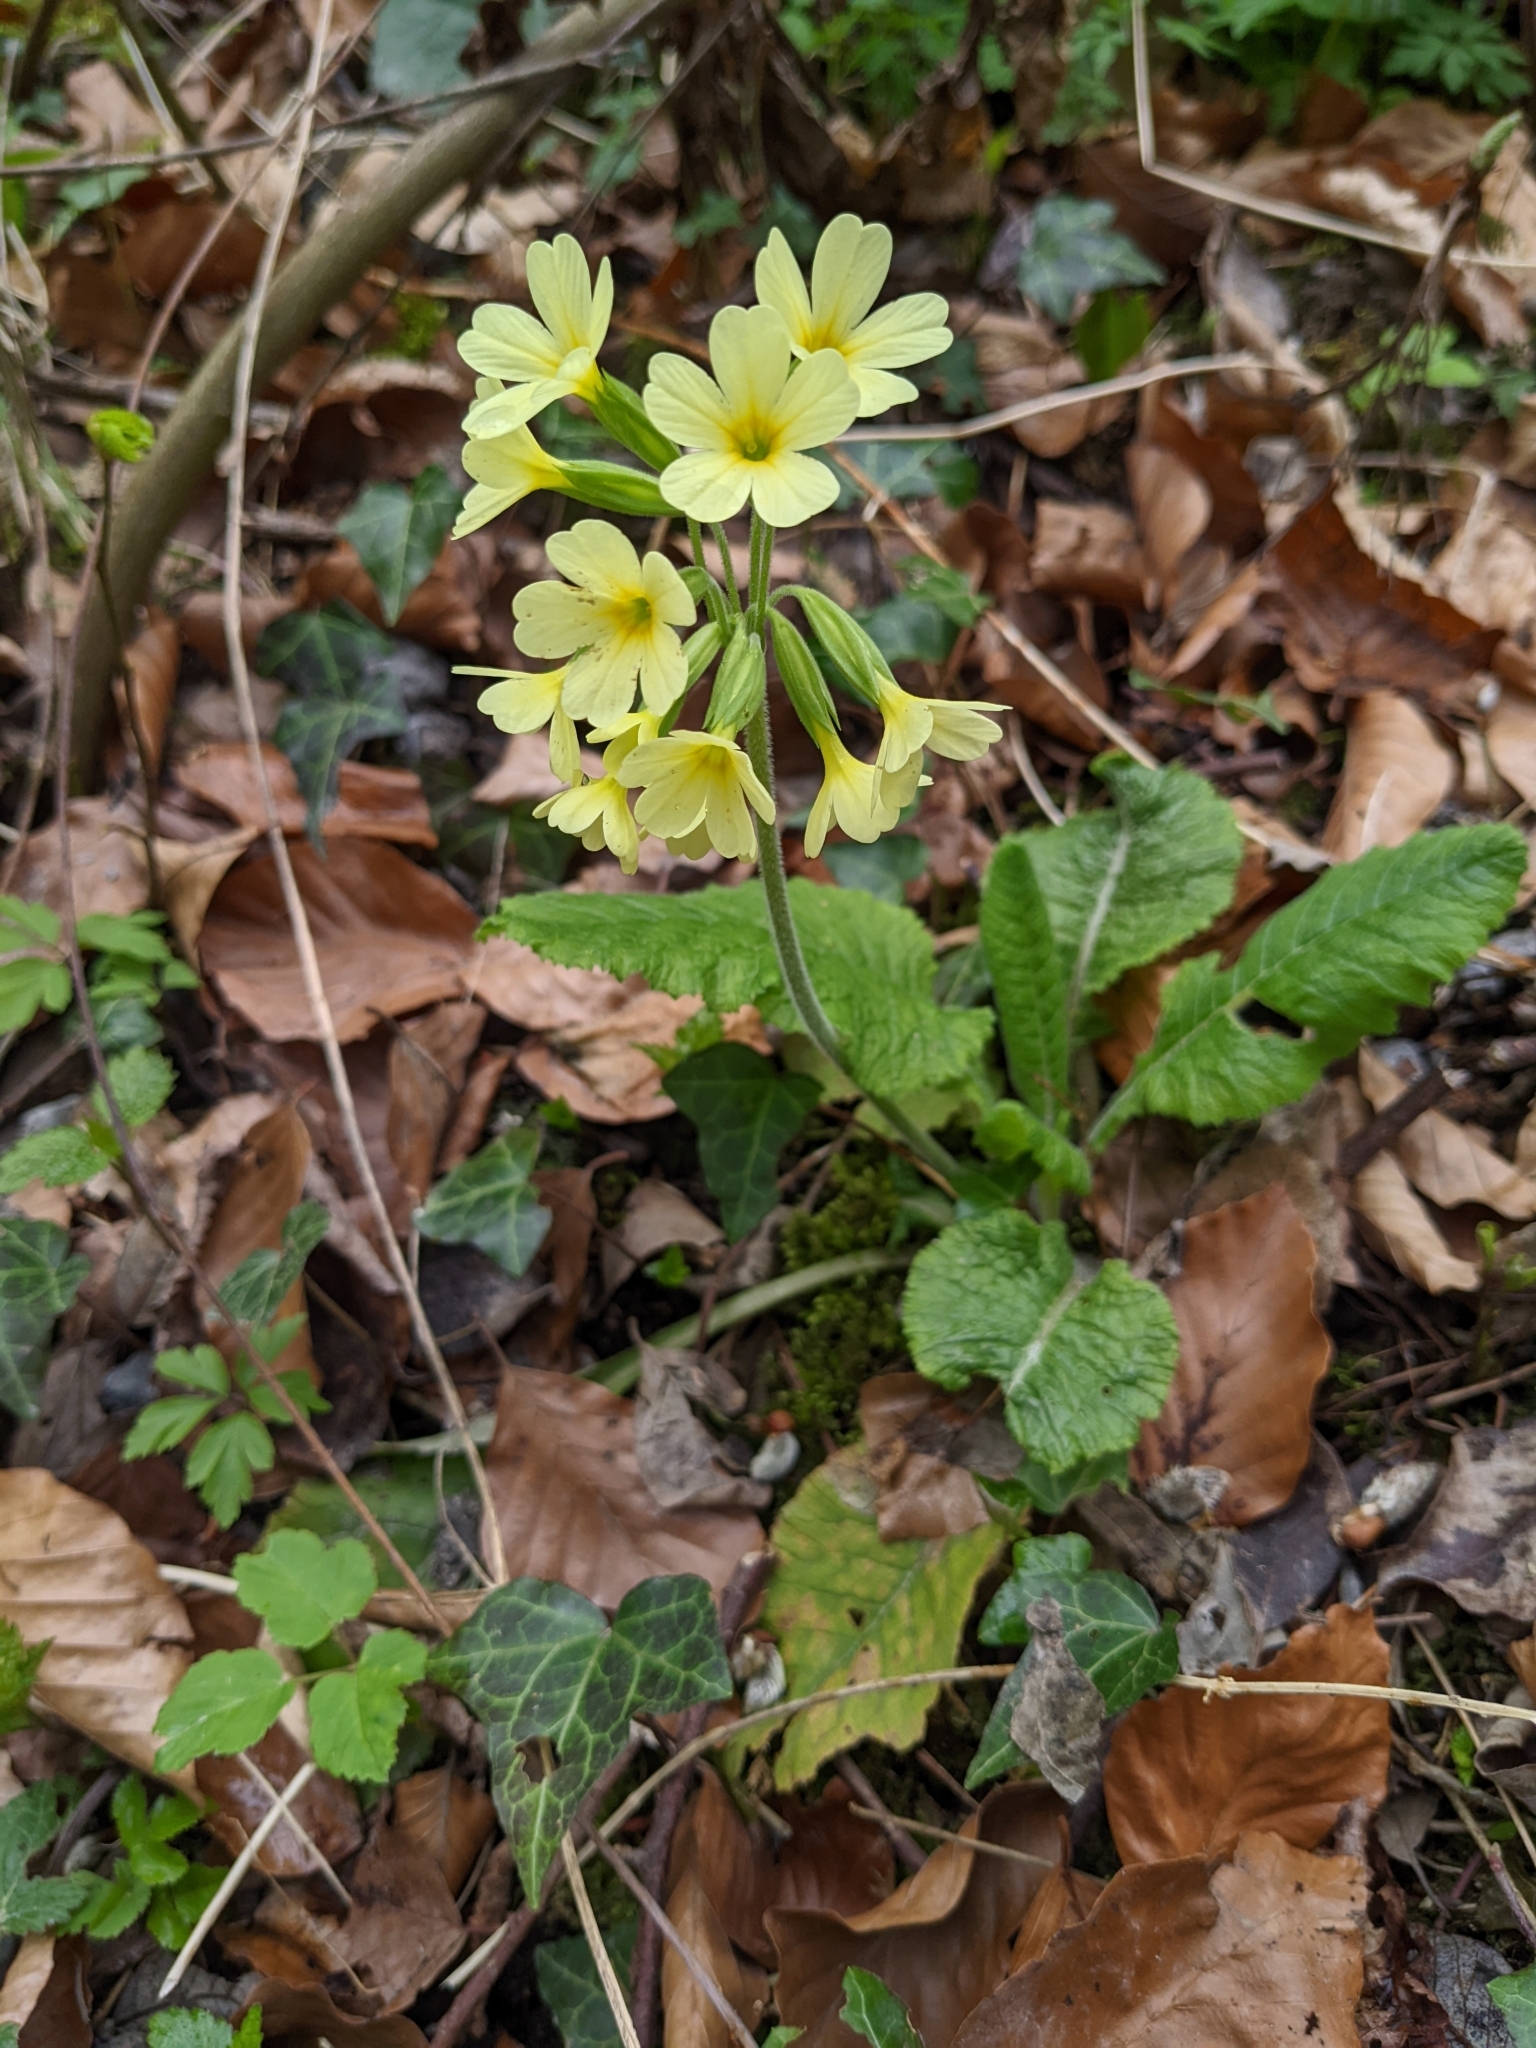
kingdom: Plantae
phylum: Tracheophyta
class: Magnoliopsida
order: Ericales
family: Primulaceae
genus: Primula
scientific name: Primula elatior
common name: Oxlip
